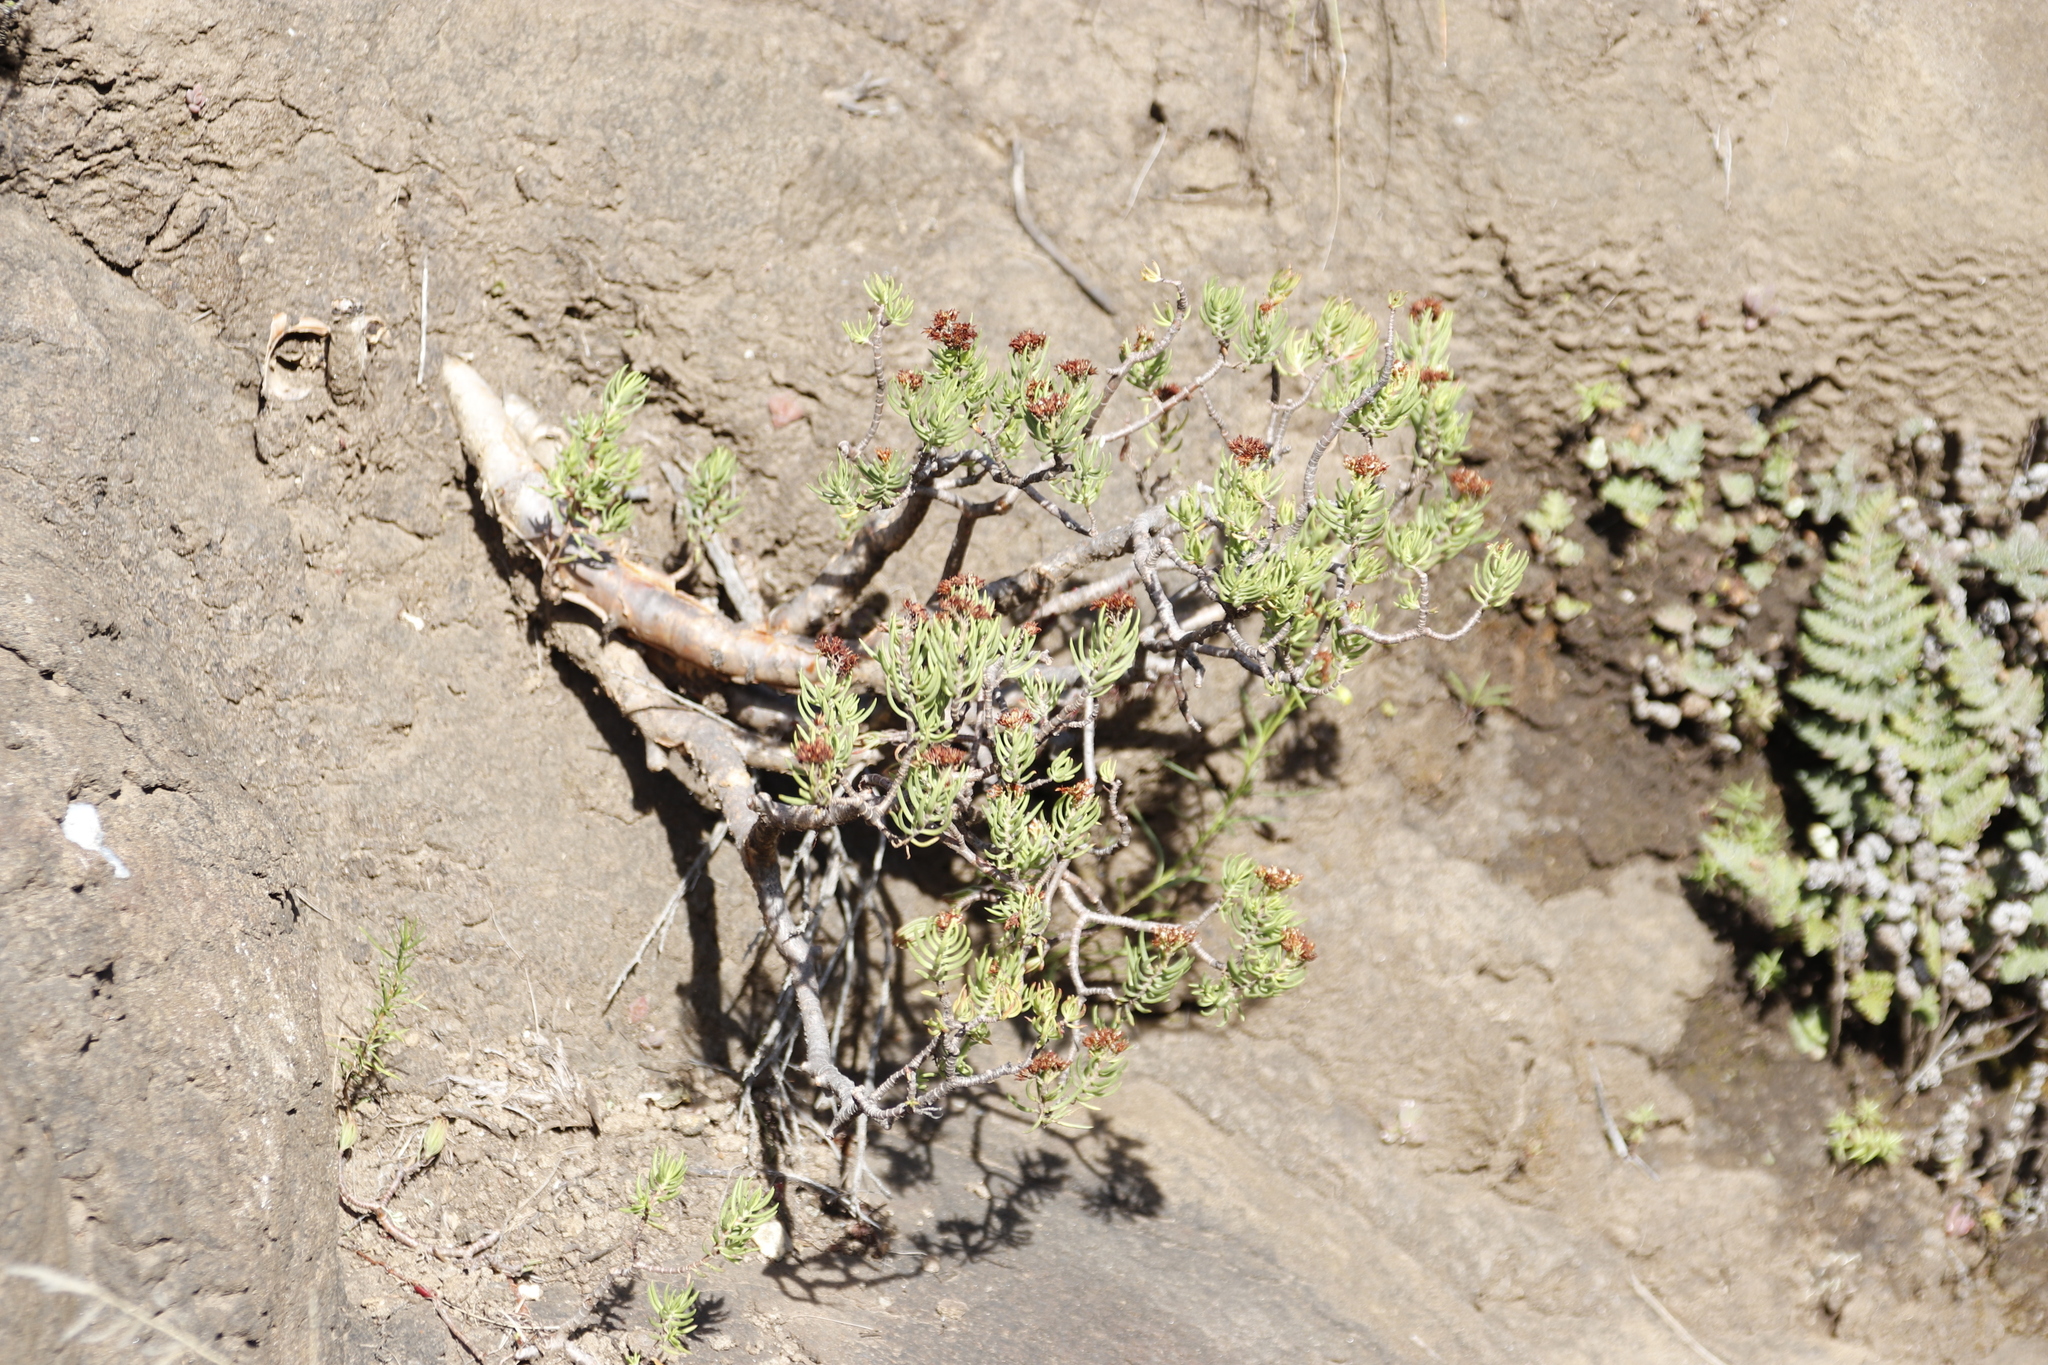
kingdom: Plantae
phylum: Tracheophyta
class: Magnoliopsida
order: Saxifragales
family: Crassulaceae
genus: Crassula
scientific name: Crassula sarcocaulis
